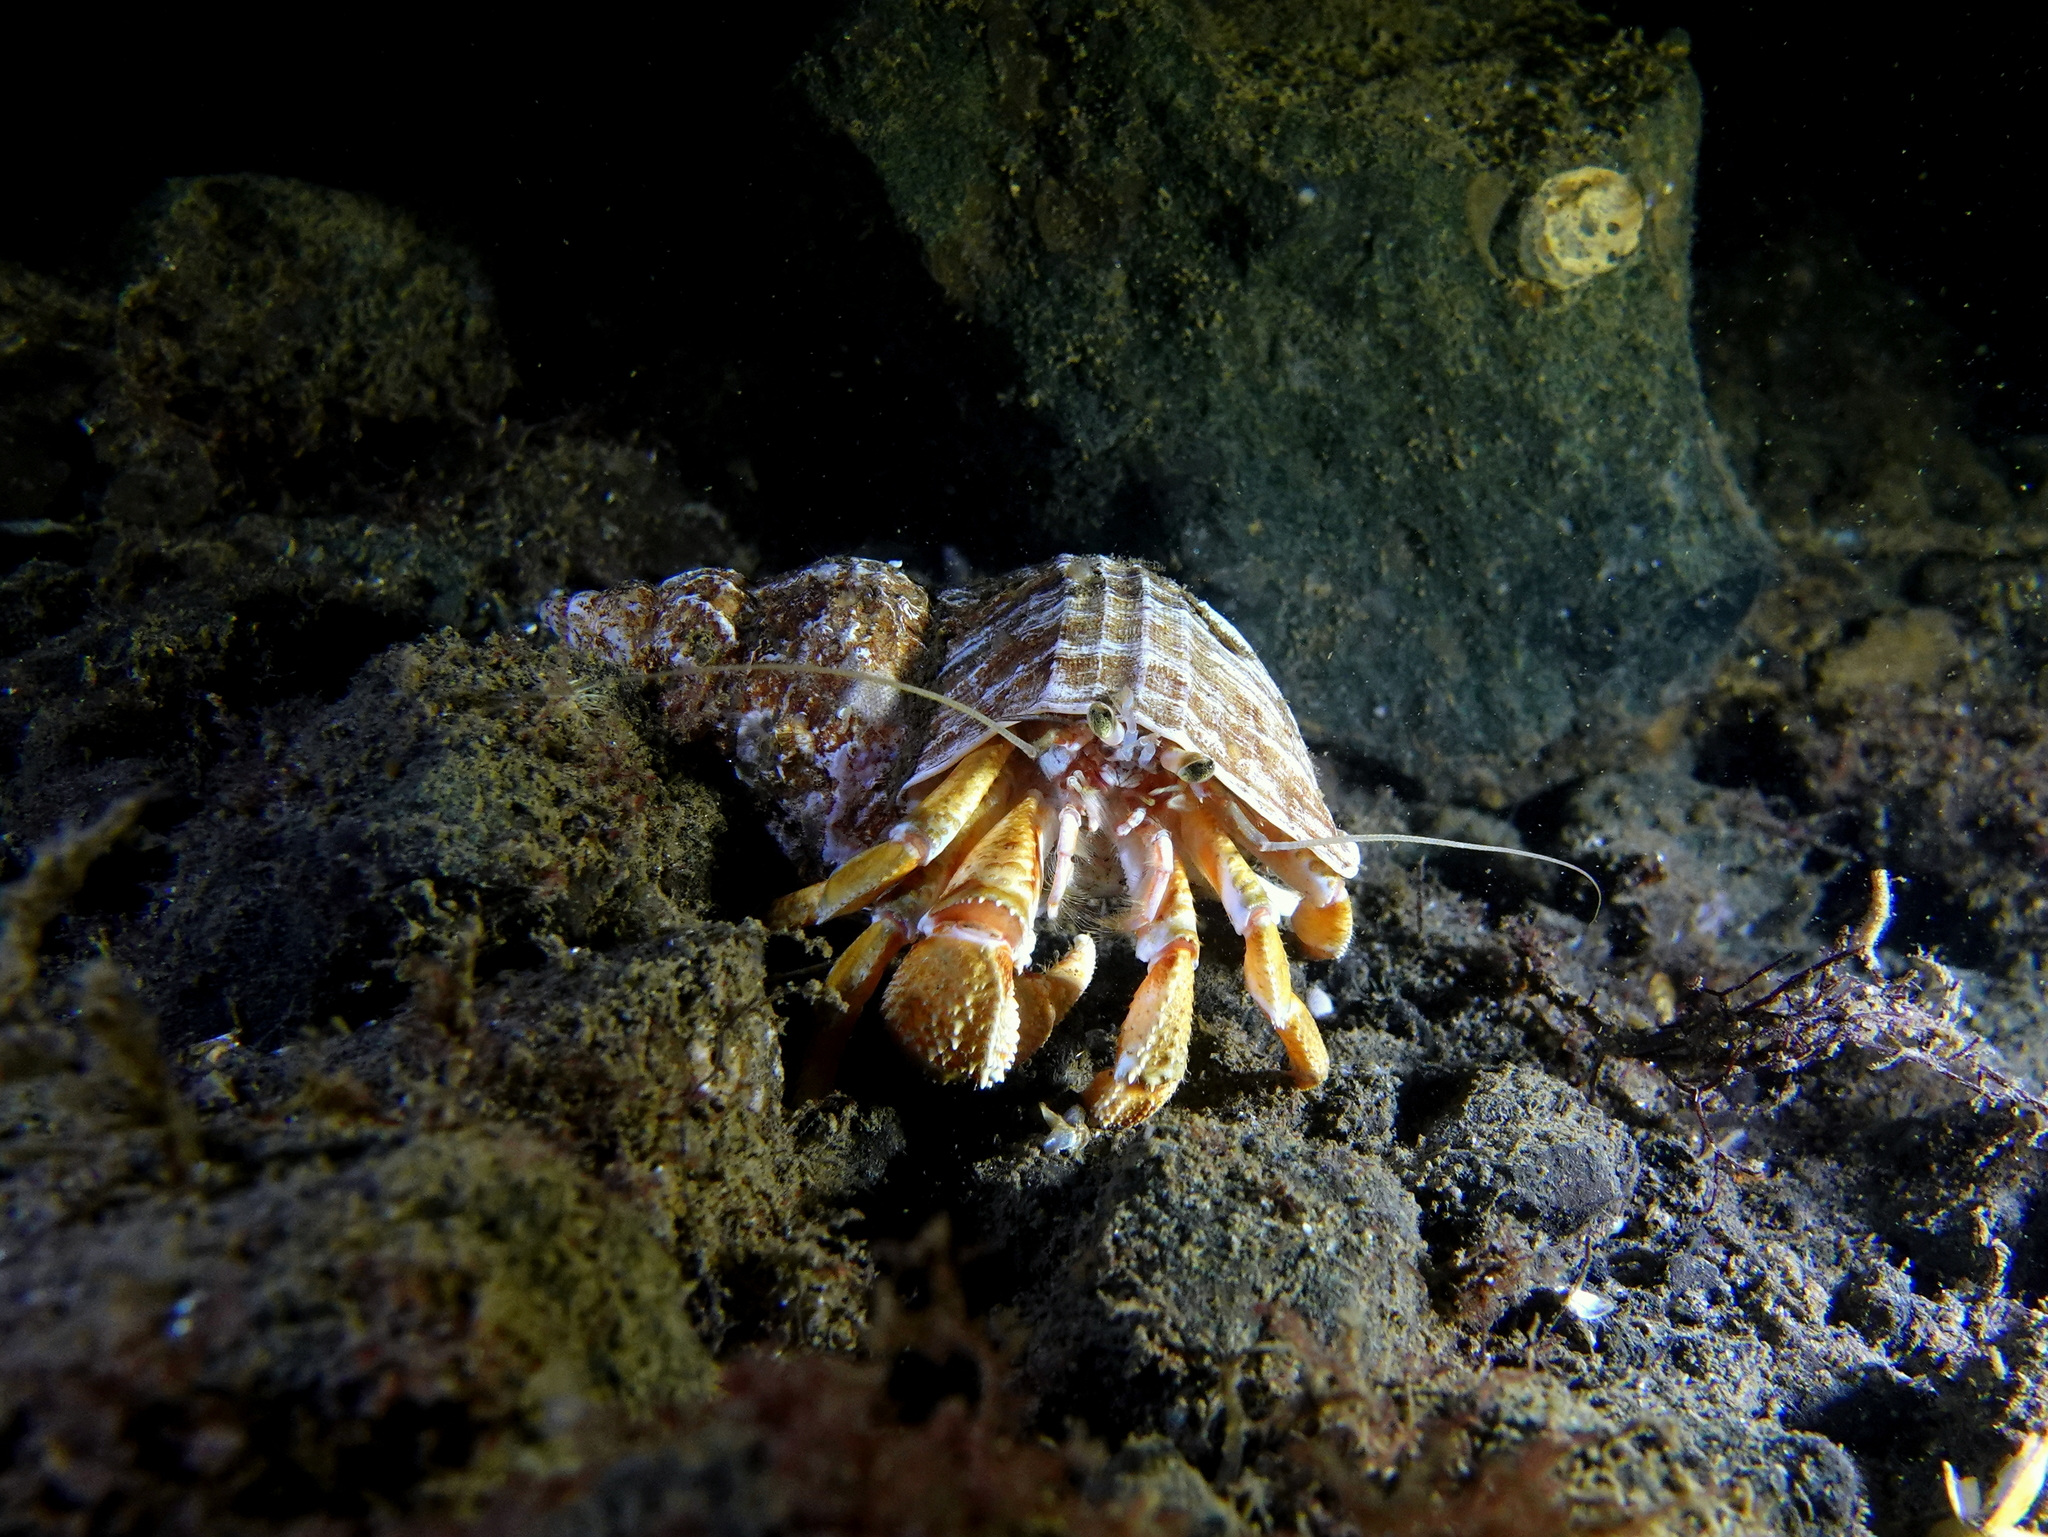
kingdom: Animalia
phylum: Arthropoda
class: Malacostraca
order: Decapoda
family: Paguridae
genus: Pagurus
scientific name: Pagurus bernhardus
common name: Hermit crab
